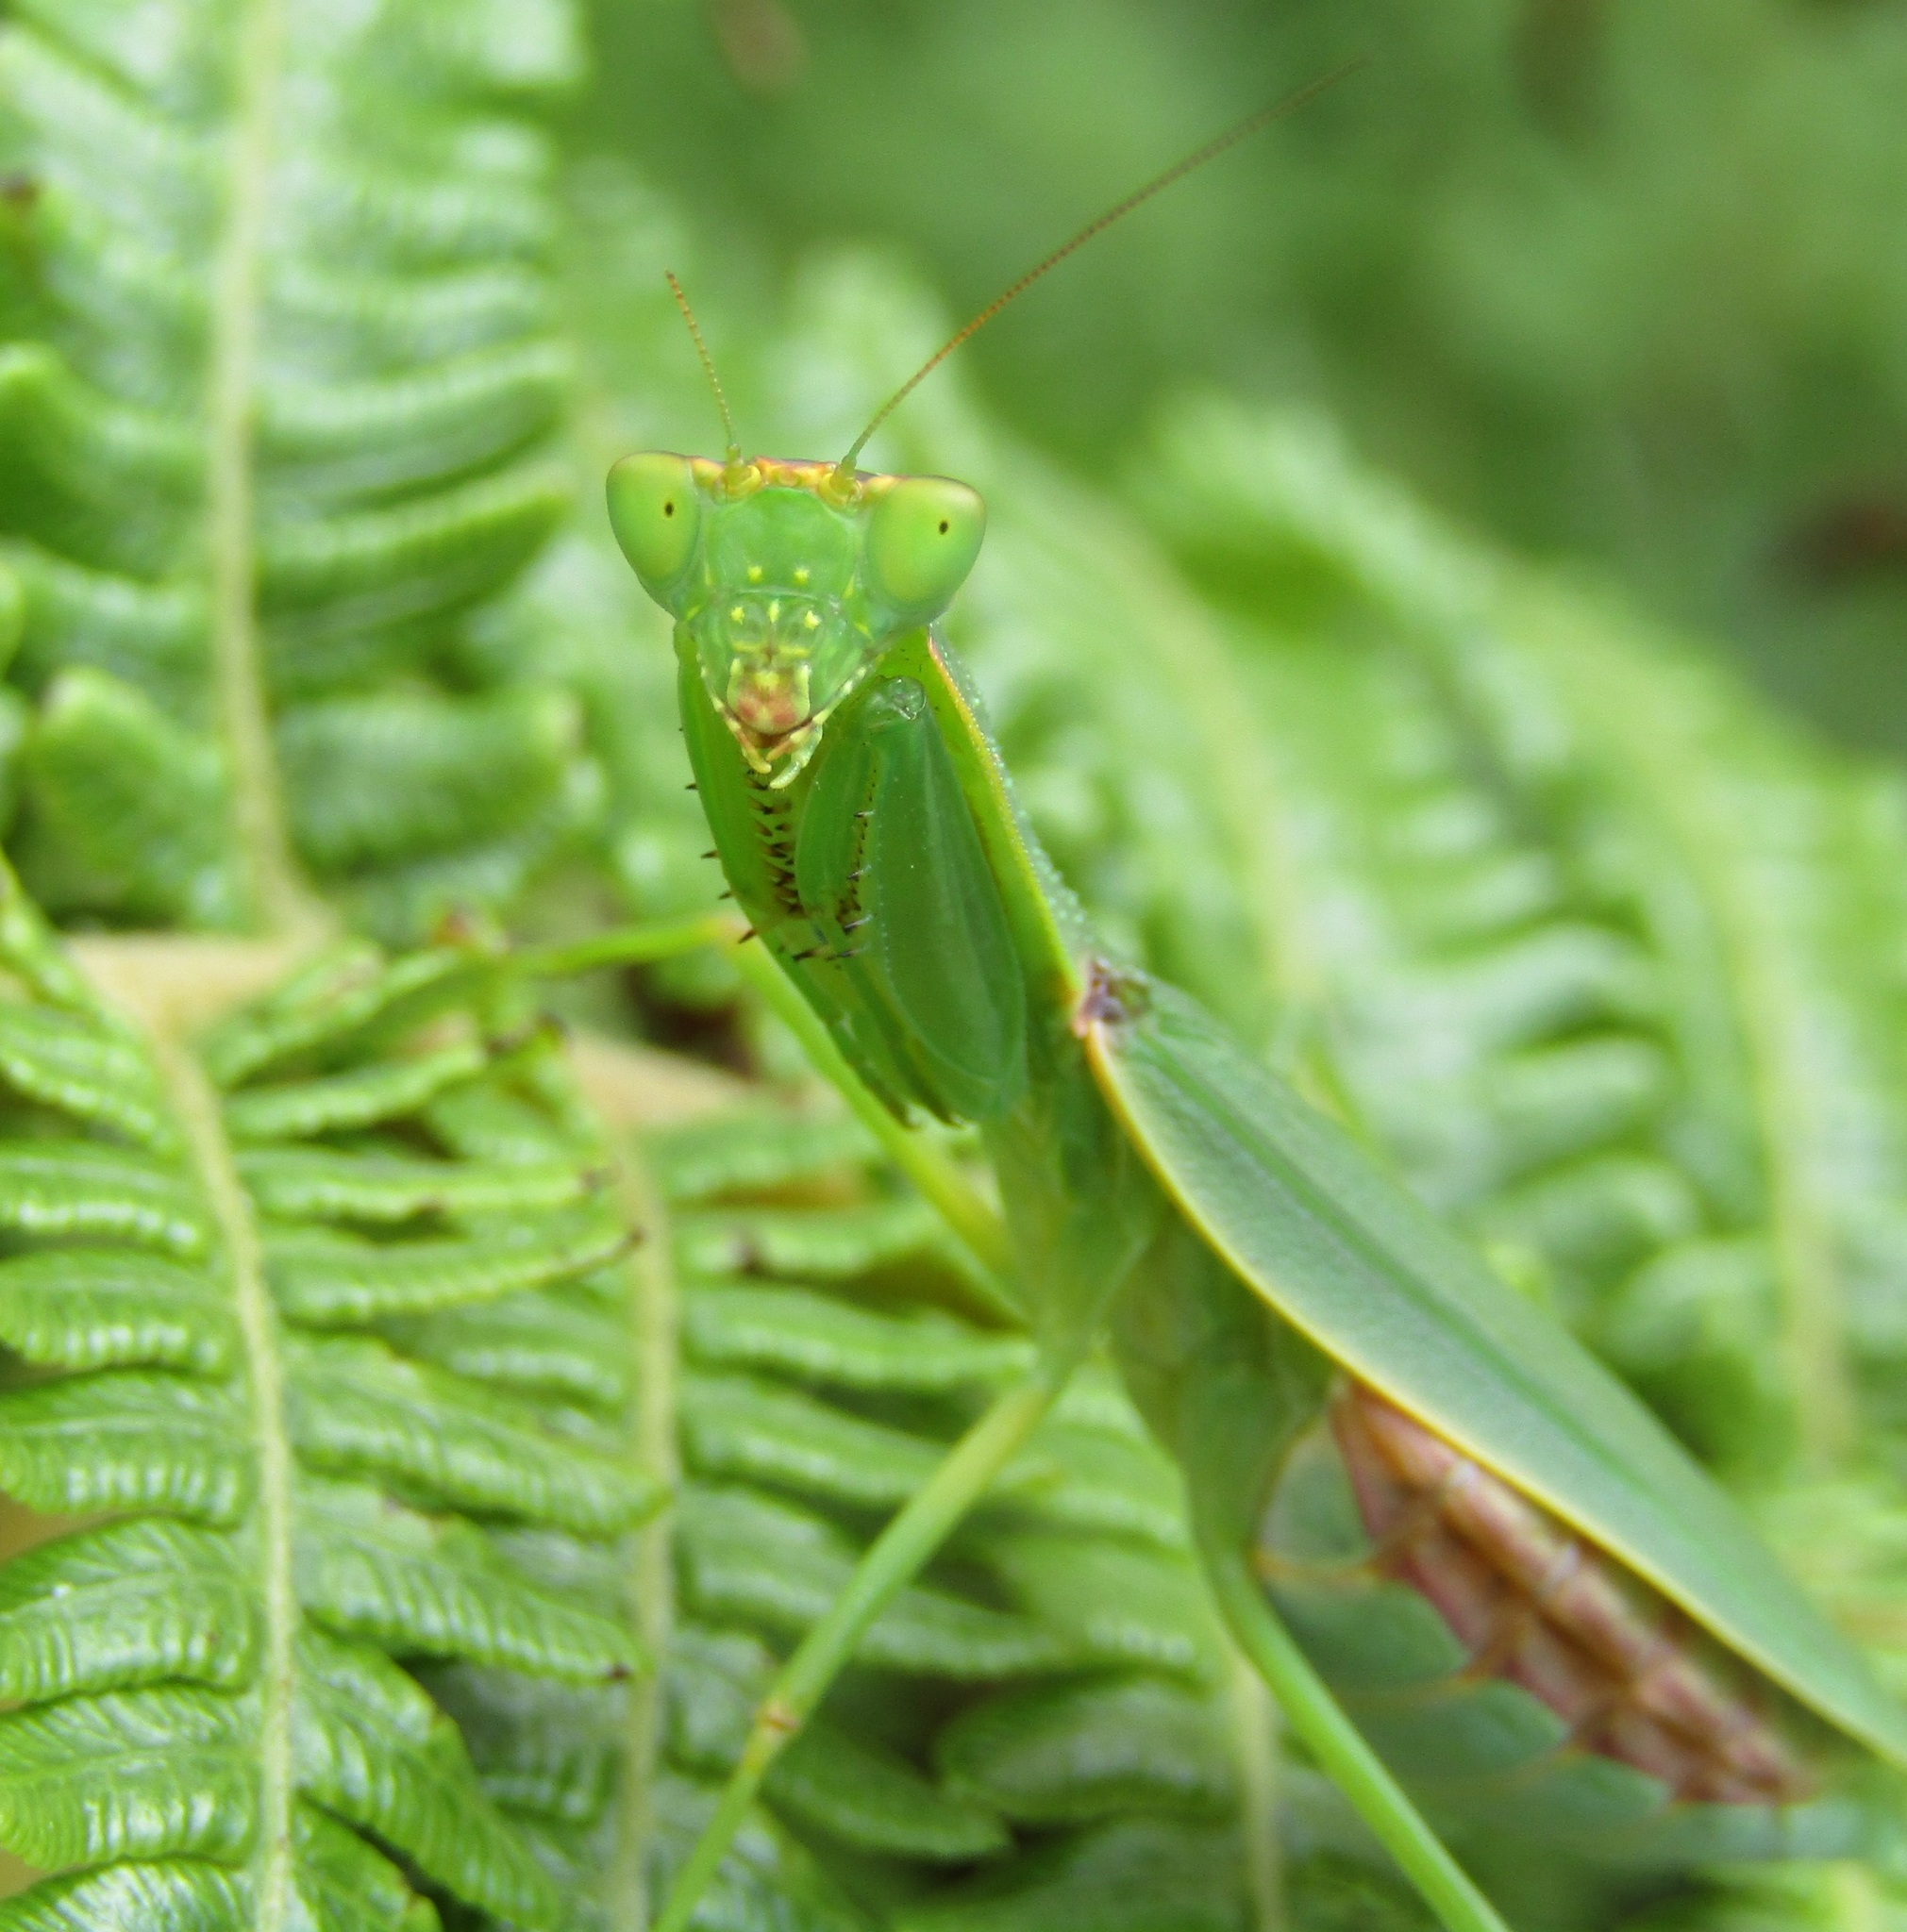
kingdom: Animalia
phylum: Arthropoda
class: Insecta
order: Mantodea
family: Mantidae
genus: Orthodera
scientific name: Orthodera novaezealandiae
